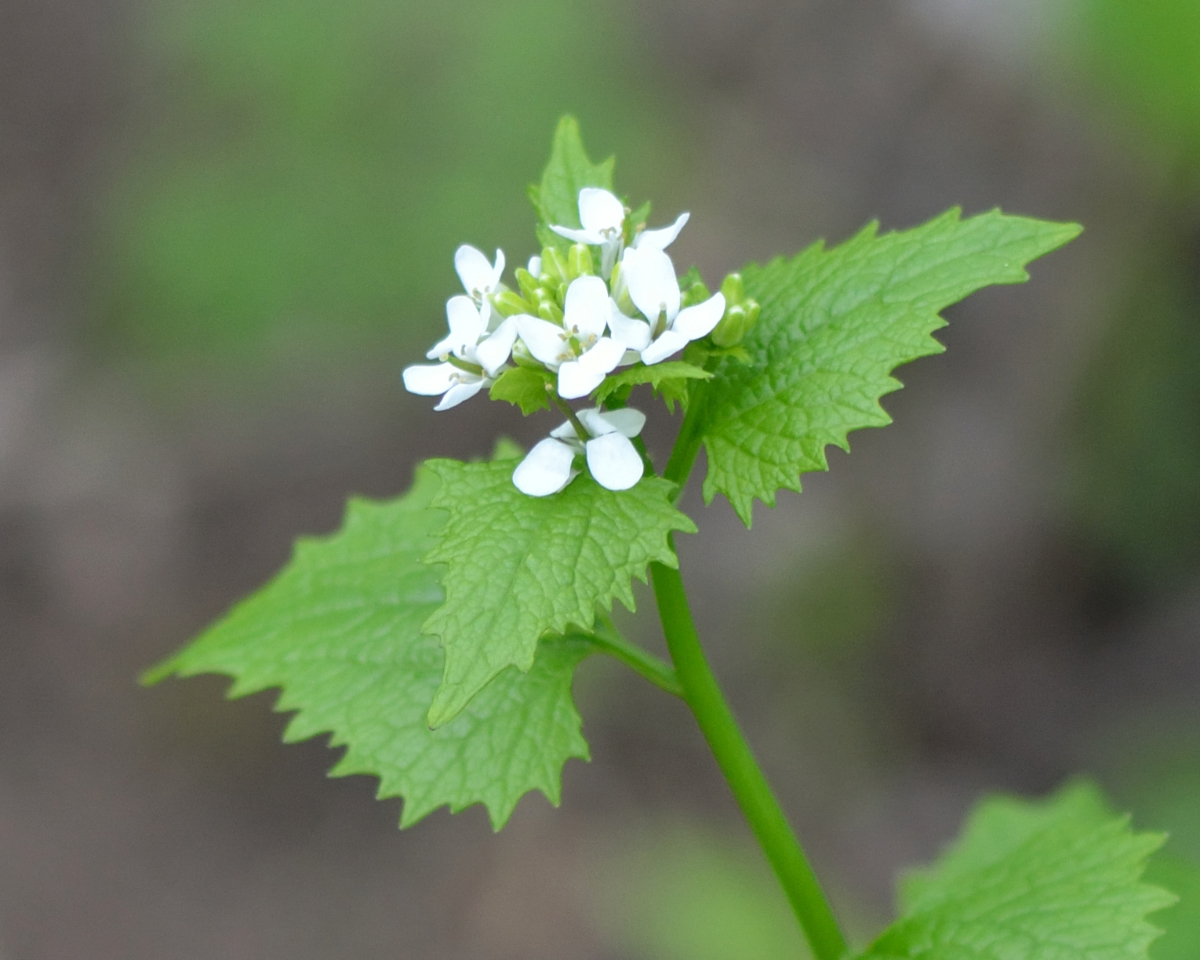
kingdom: Plantae
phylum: Tracheophyta
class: Magnoliopsida
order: Brassicales
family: Brassicaceae
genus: Alliaria
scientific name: Alliaria petiolata
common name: Garlic mustard
